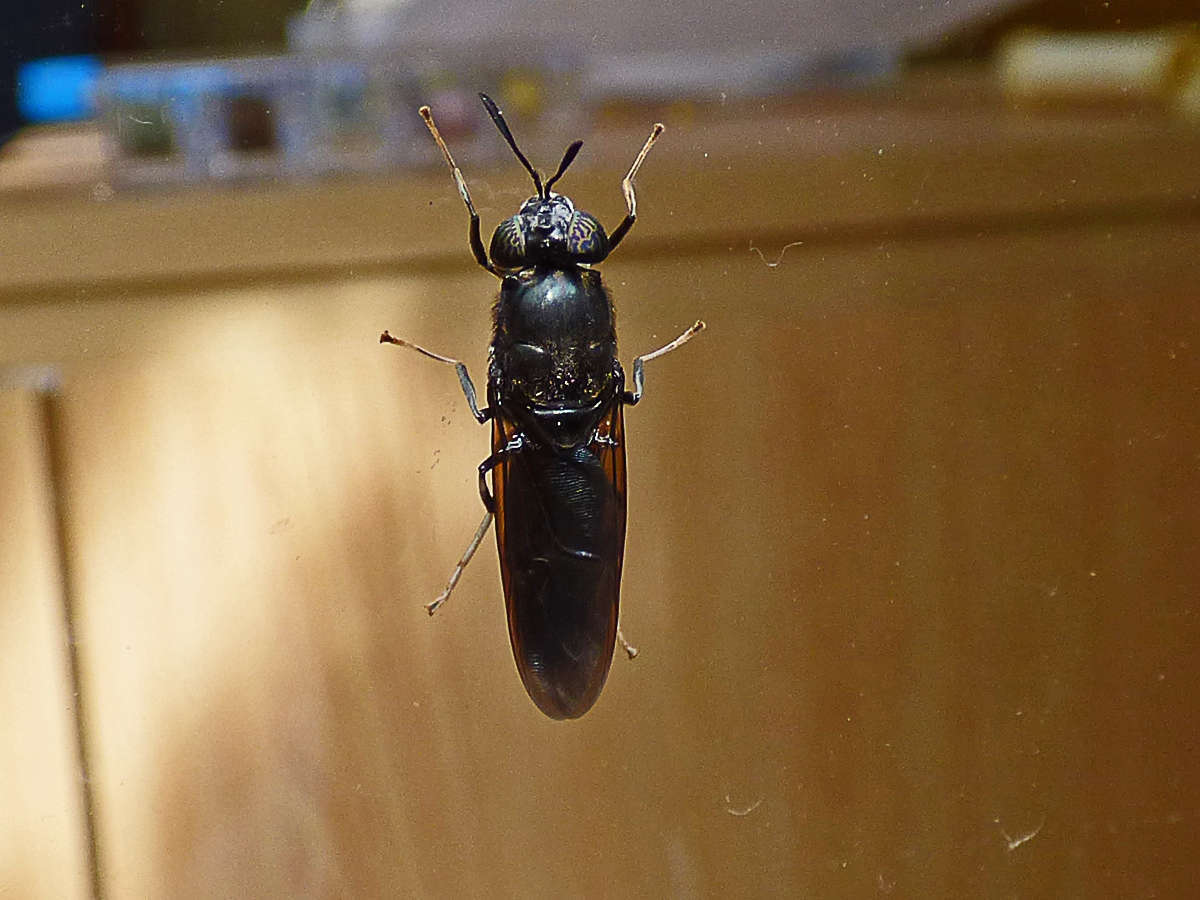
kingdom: Animalia
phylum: Arthropoda
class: Insecta
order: Diptera
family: Stratiomyidae
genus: Hermetia
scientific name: Hermetia illucens
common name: Black soldier fly
